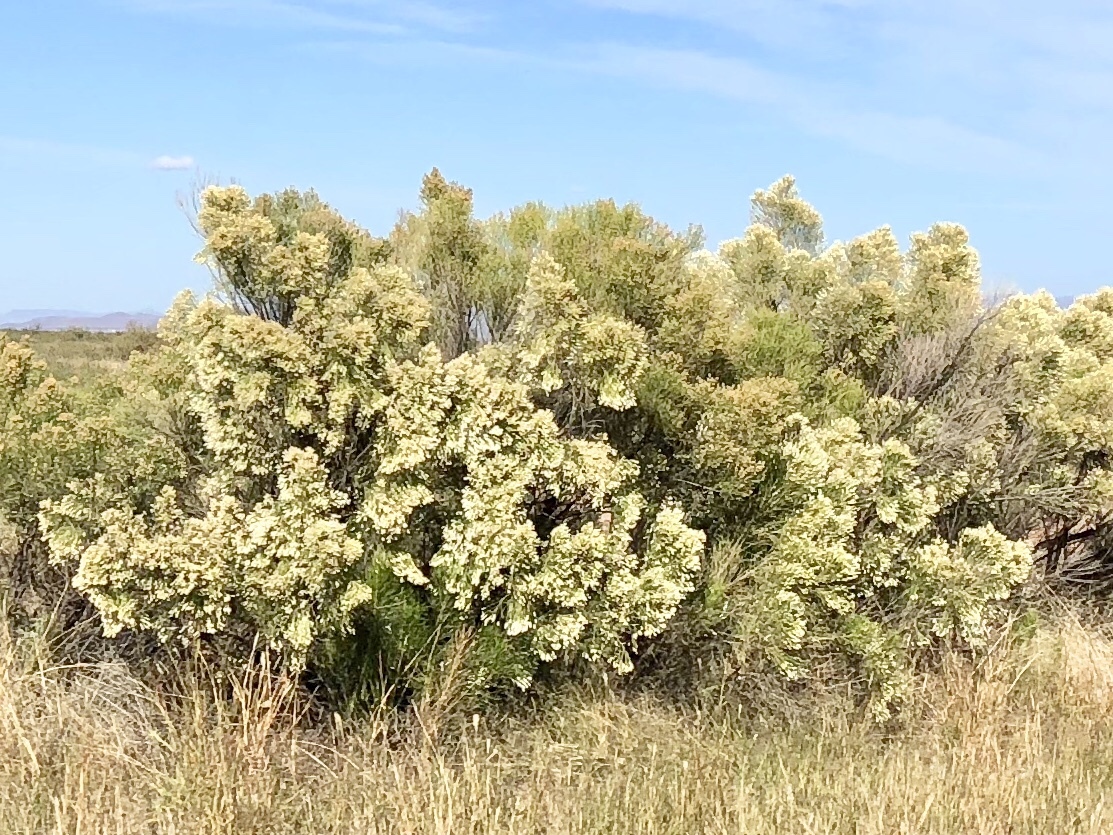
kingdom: Plantae
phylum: Tracheophyta
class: Magnoliopsida
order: Asterales
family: Asteraceae
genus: Baccharis
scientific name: Baccharis sarothroides
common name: Desert-broom
